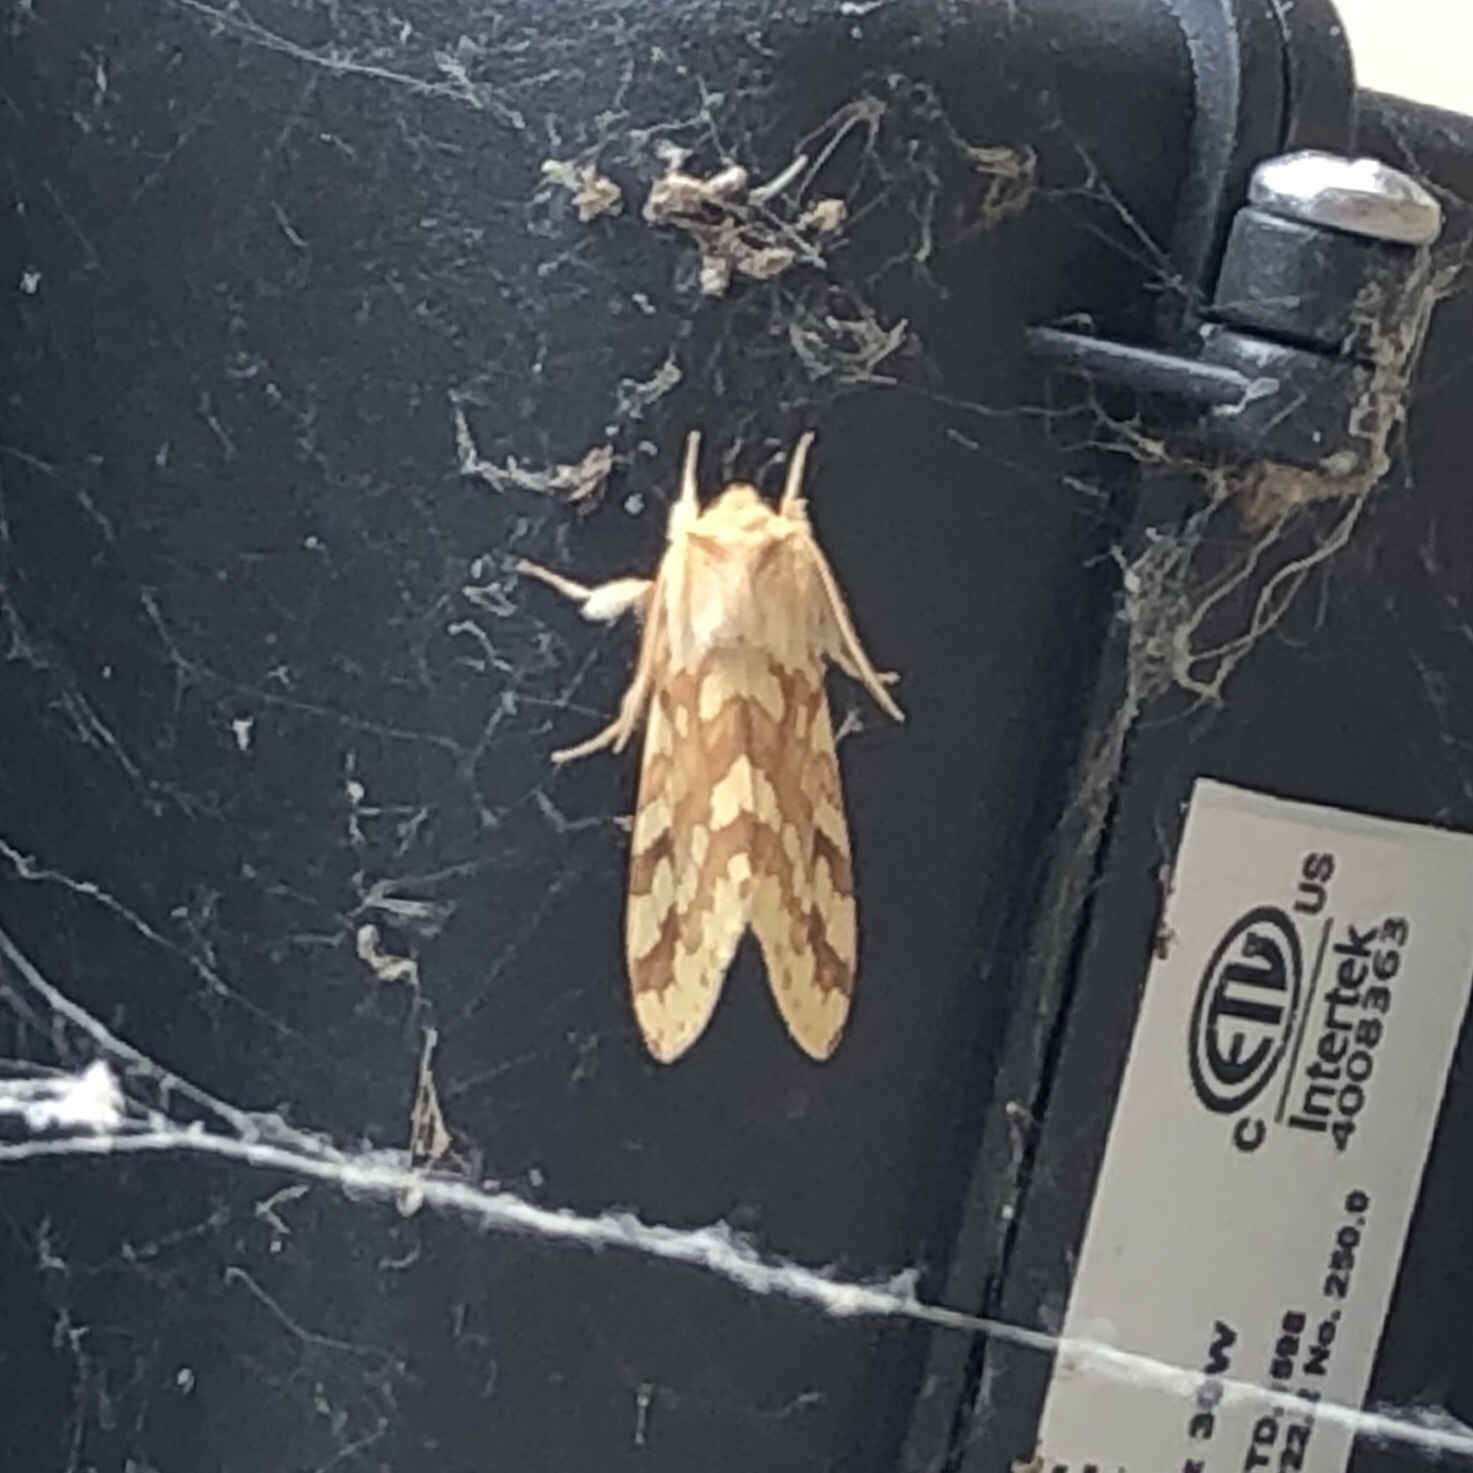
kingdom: Animalia
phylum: Arthropoda
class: Insecta
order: Lepidoptera
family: Erebidae
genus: Lophocampa
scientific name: Lophocampa maculata
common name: Spotted tussock moth
